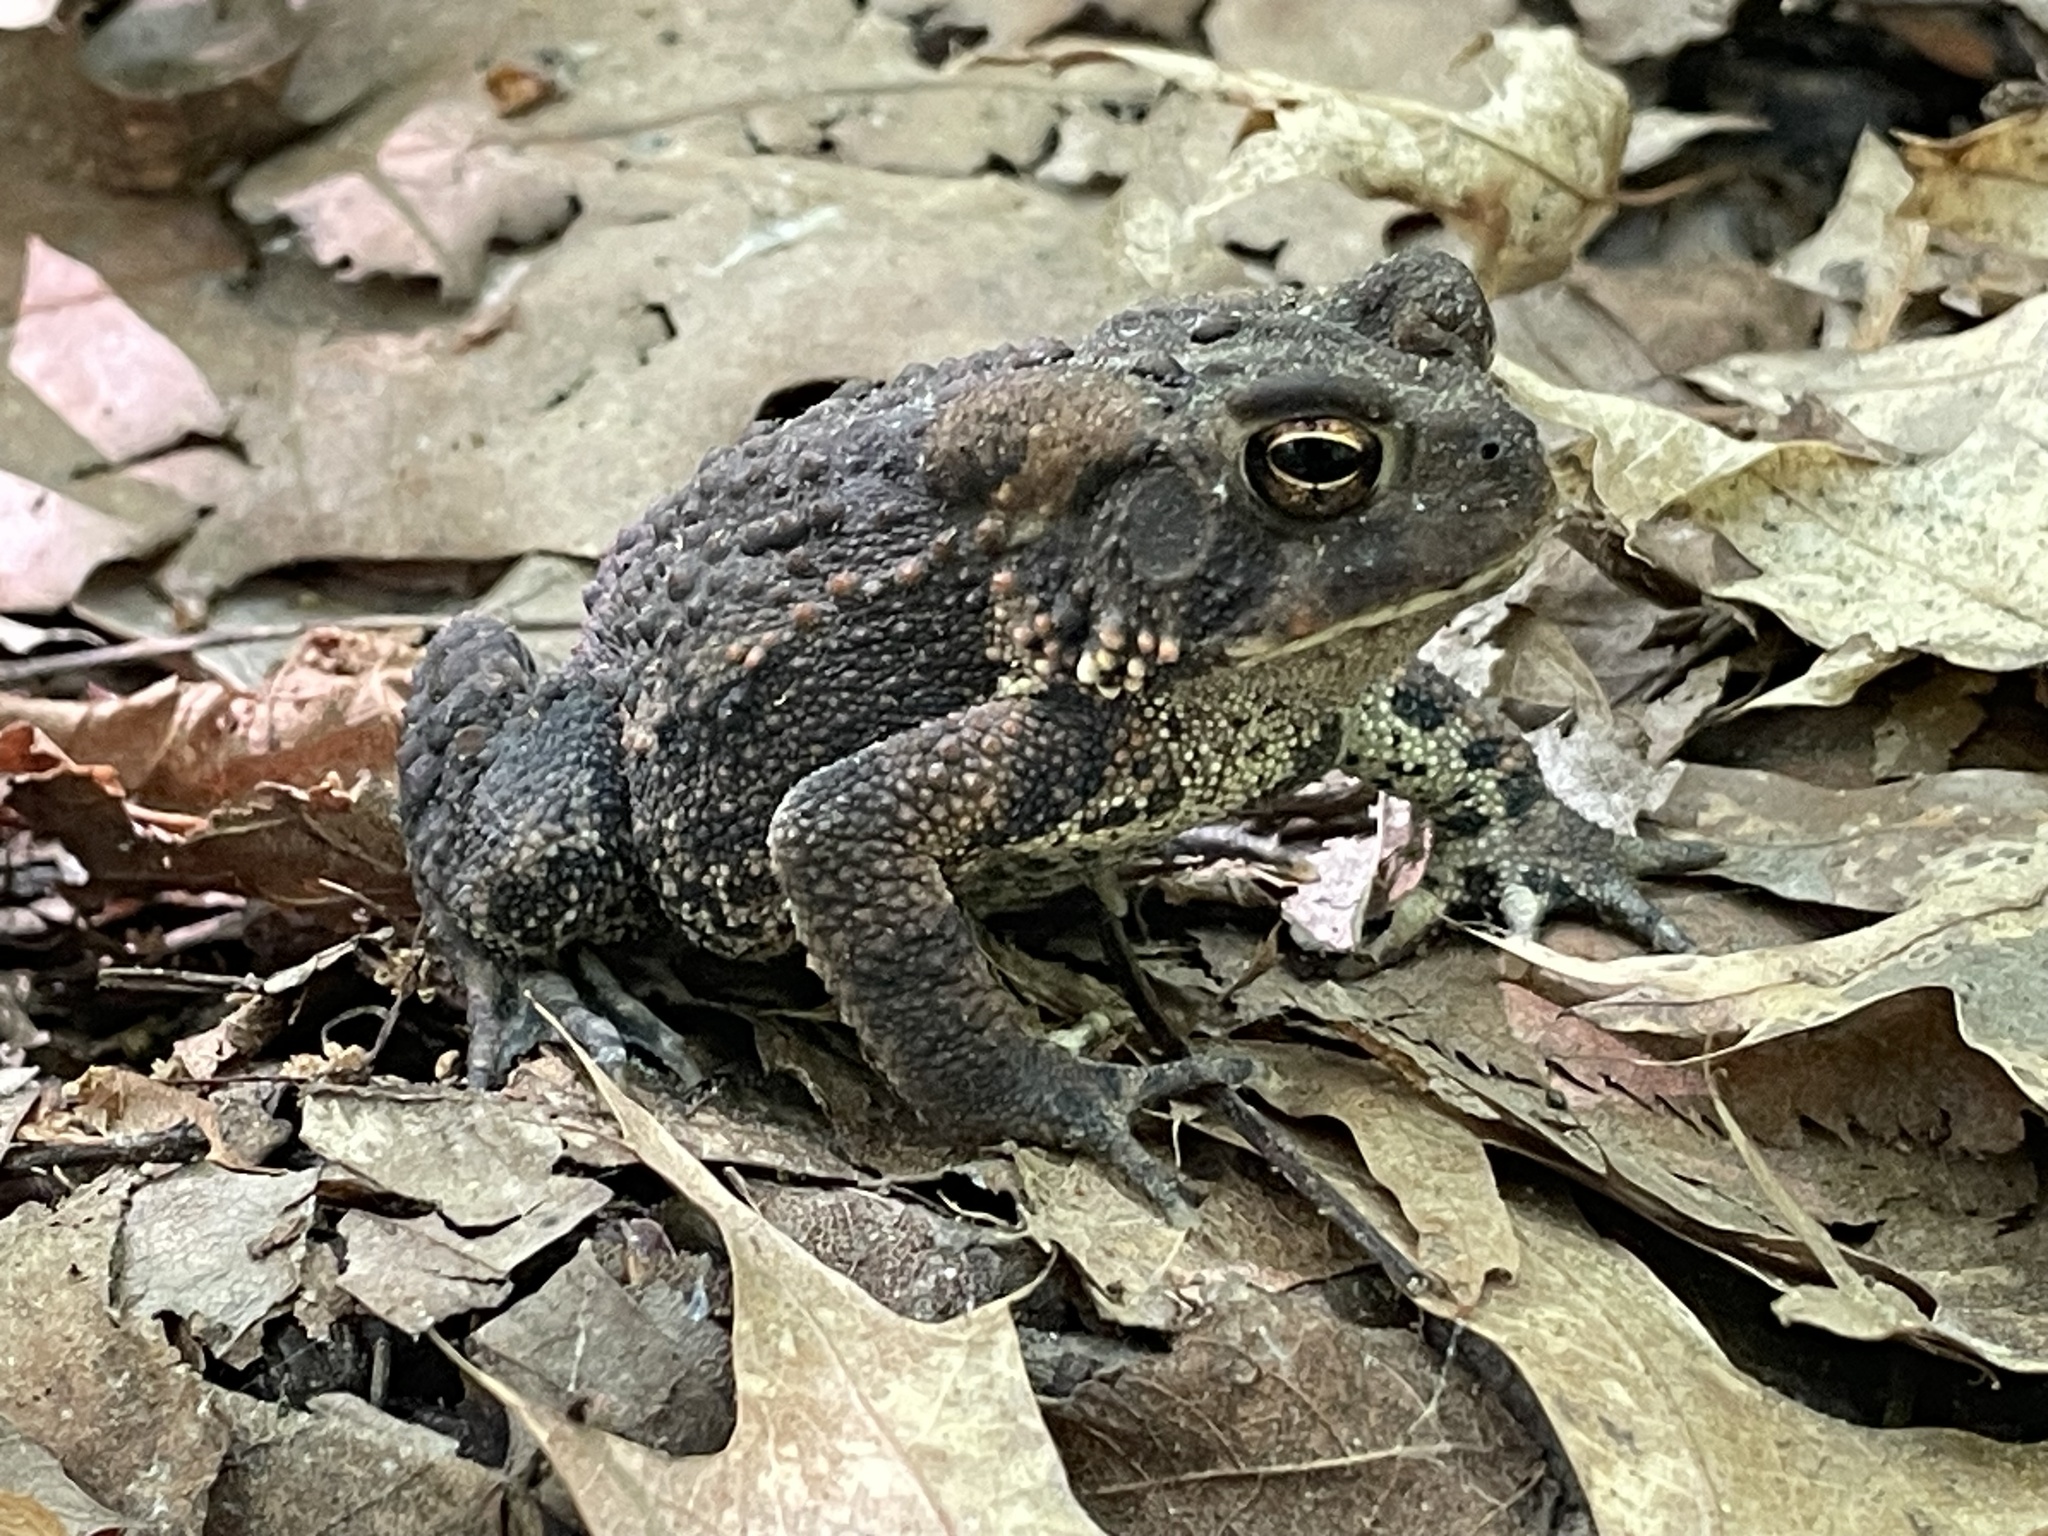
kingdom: Animalia
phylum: Chordata
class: Amphibia
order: Anura
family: Bufonidae
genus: Anaxyrus
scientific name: Anaxyrus americanus
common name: American toad
